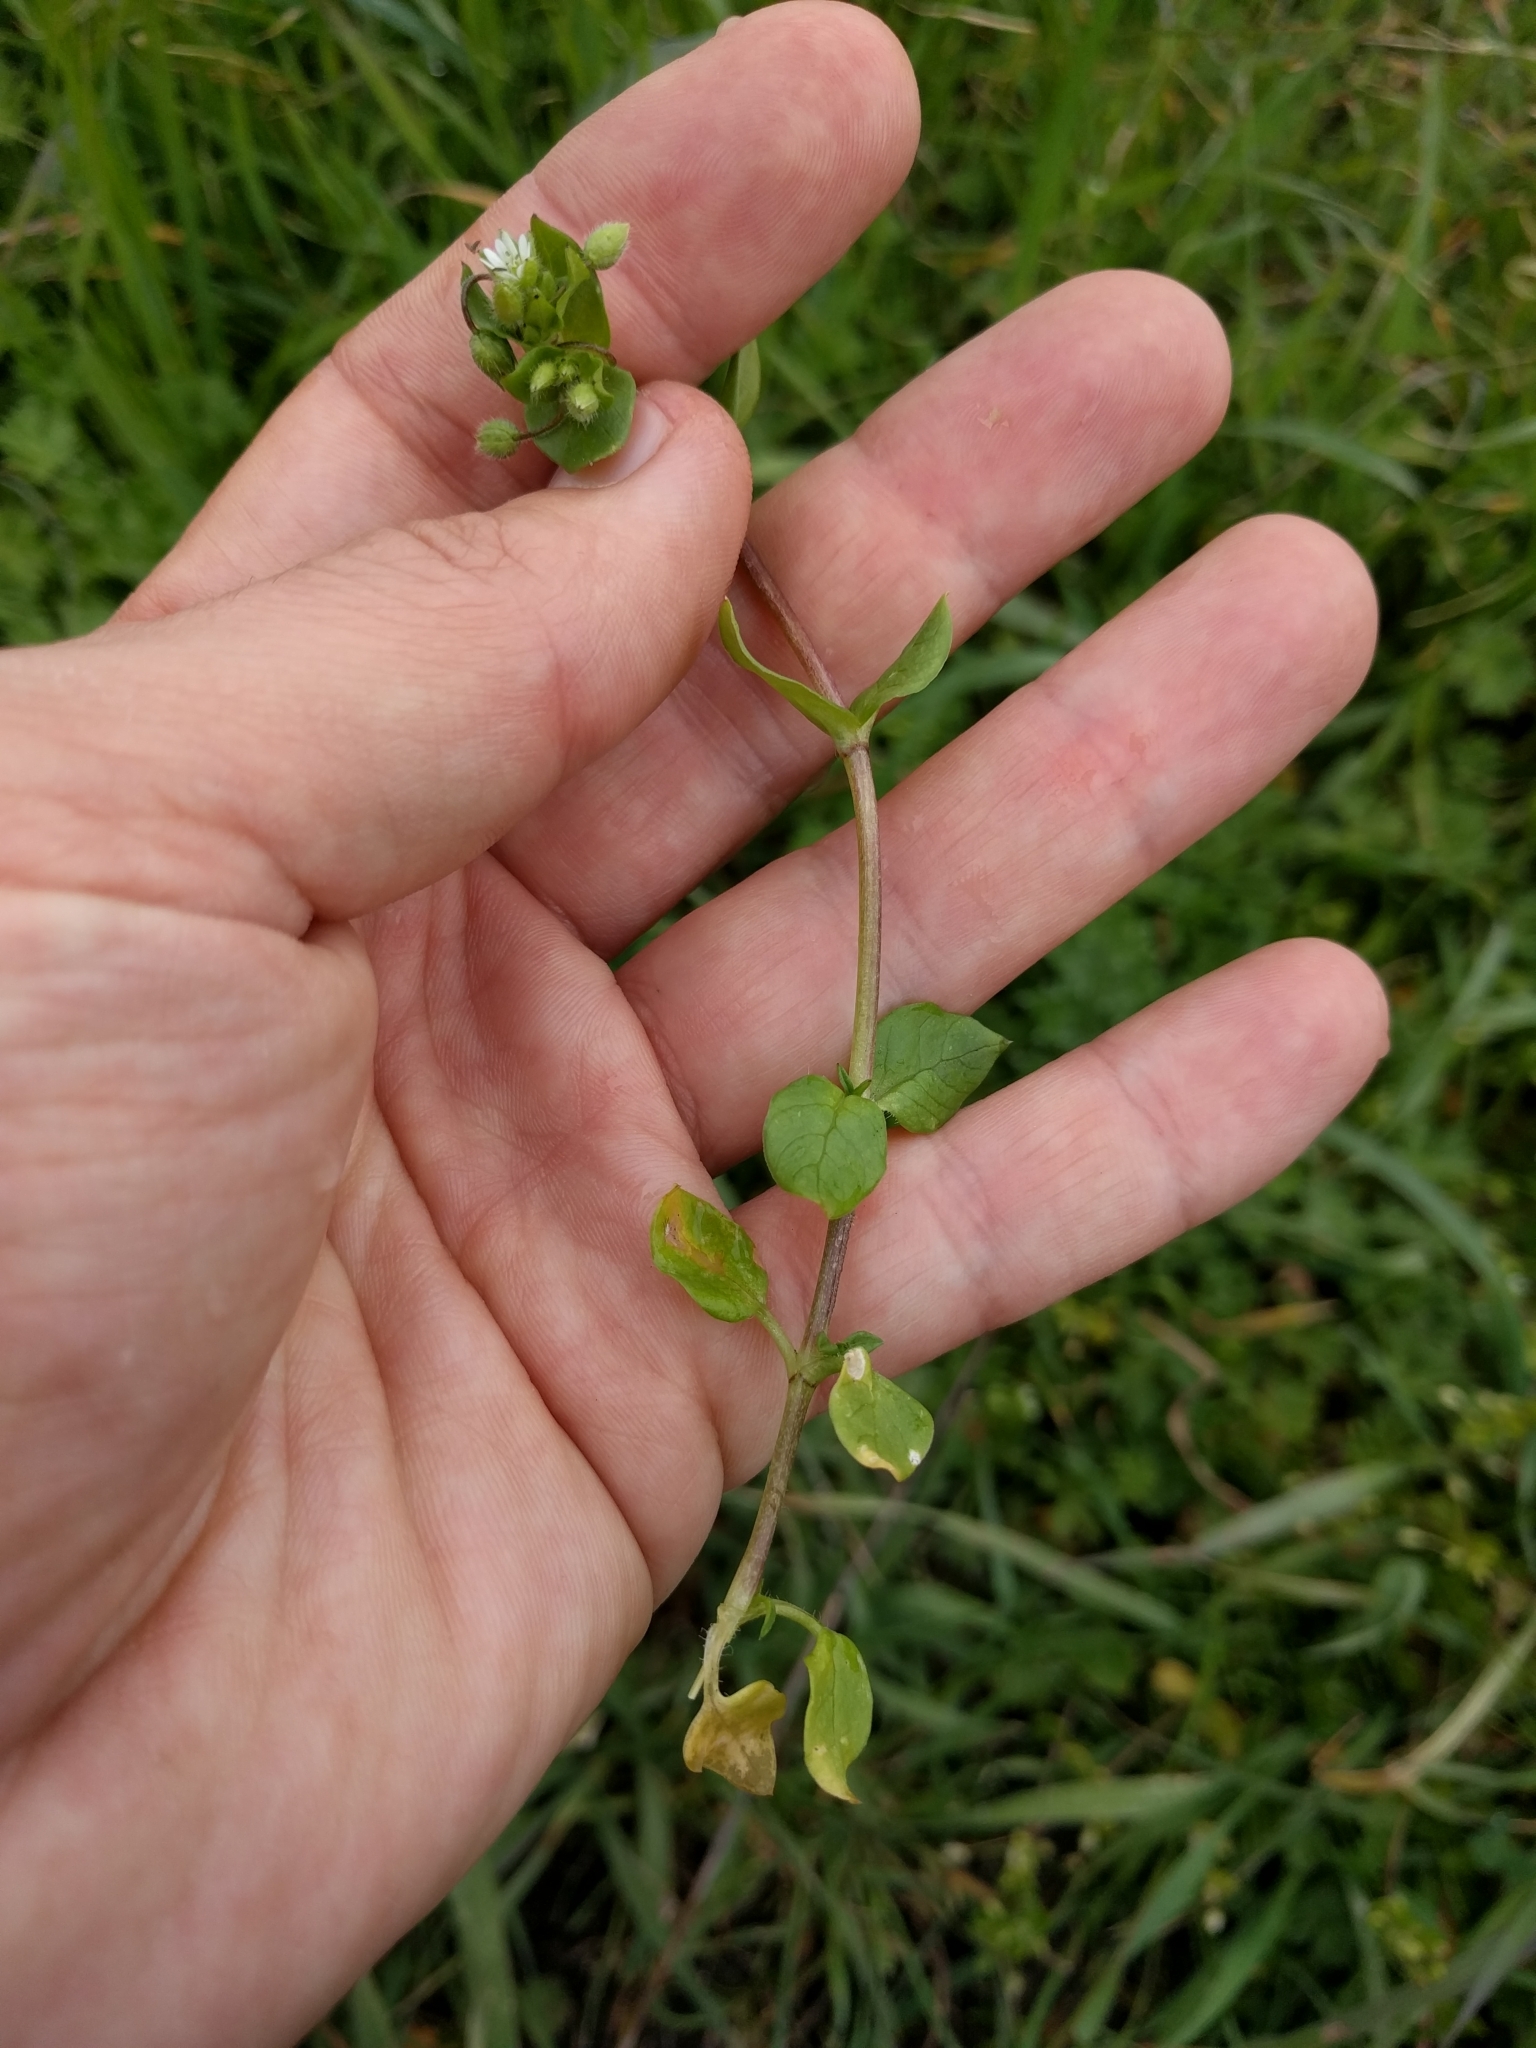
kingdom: Plantae
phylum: Tracheophyta
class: Magnoliopsida
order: Caryophyllales
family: Caryophyllaceae
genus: Stellaria
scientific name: Stellaria media
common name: Common chickweed
